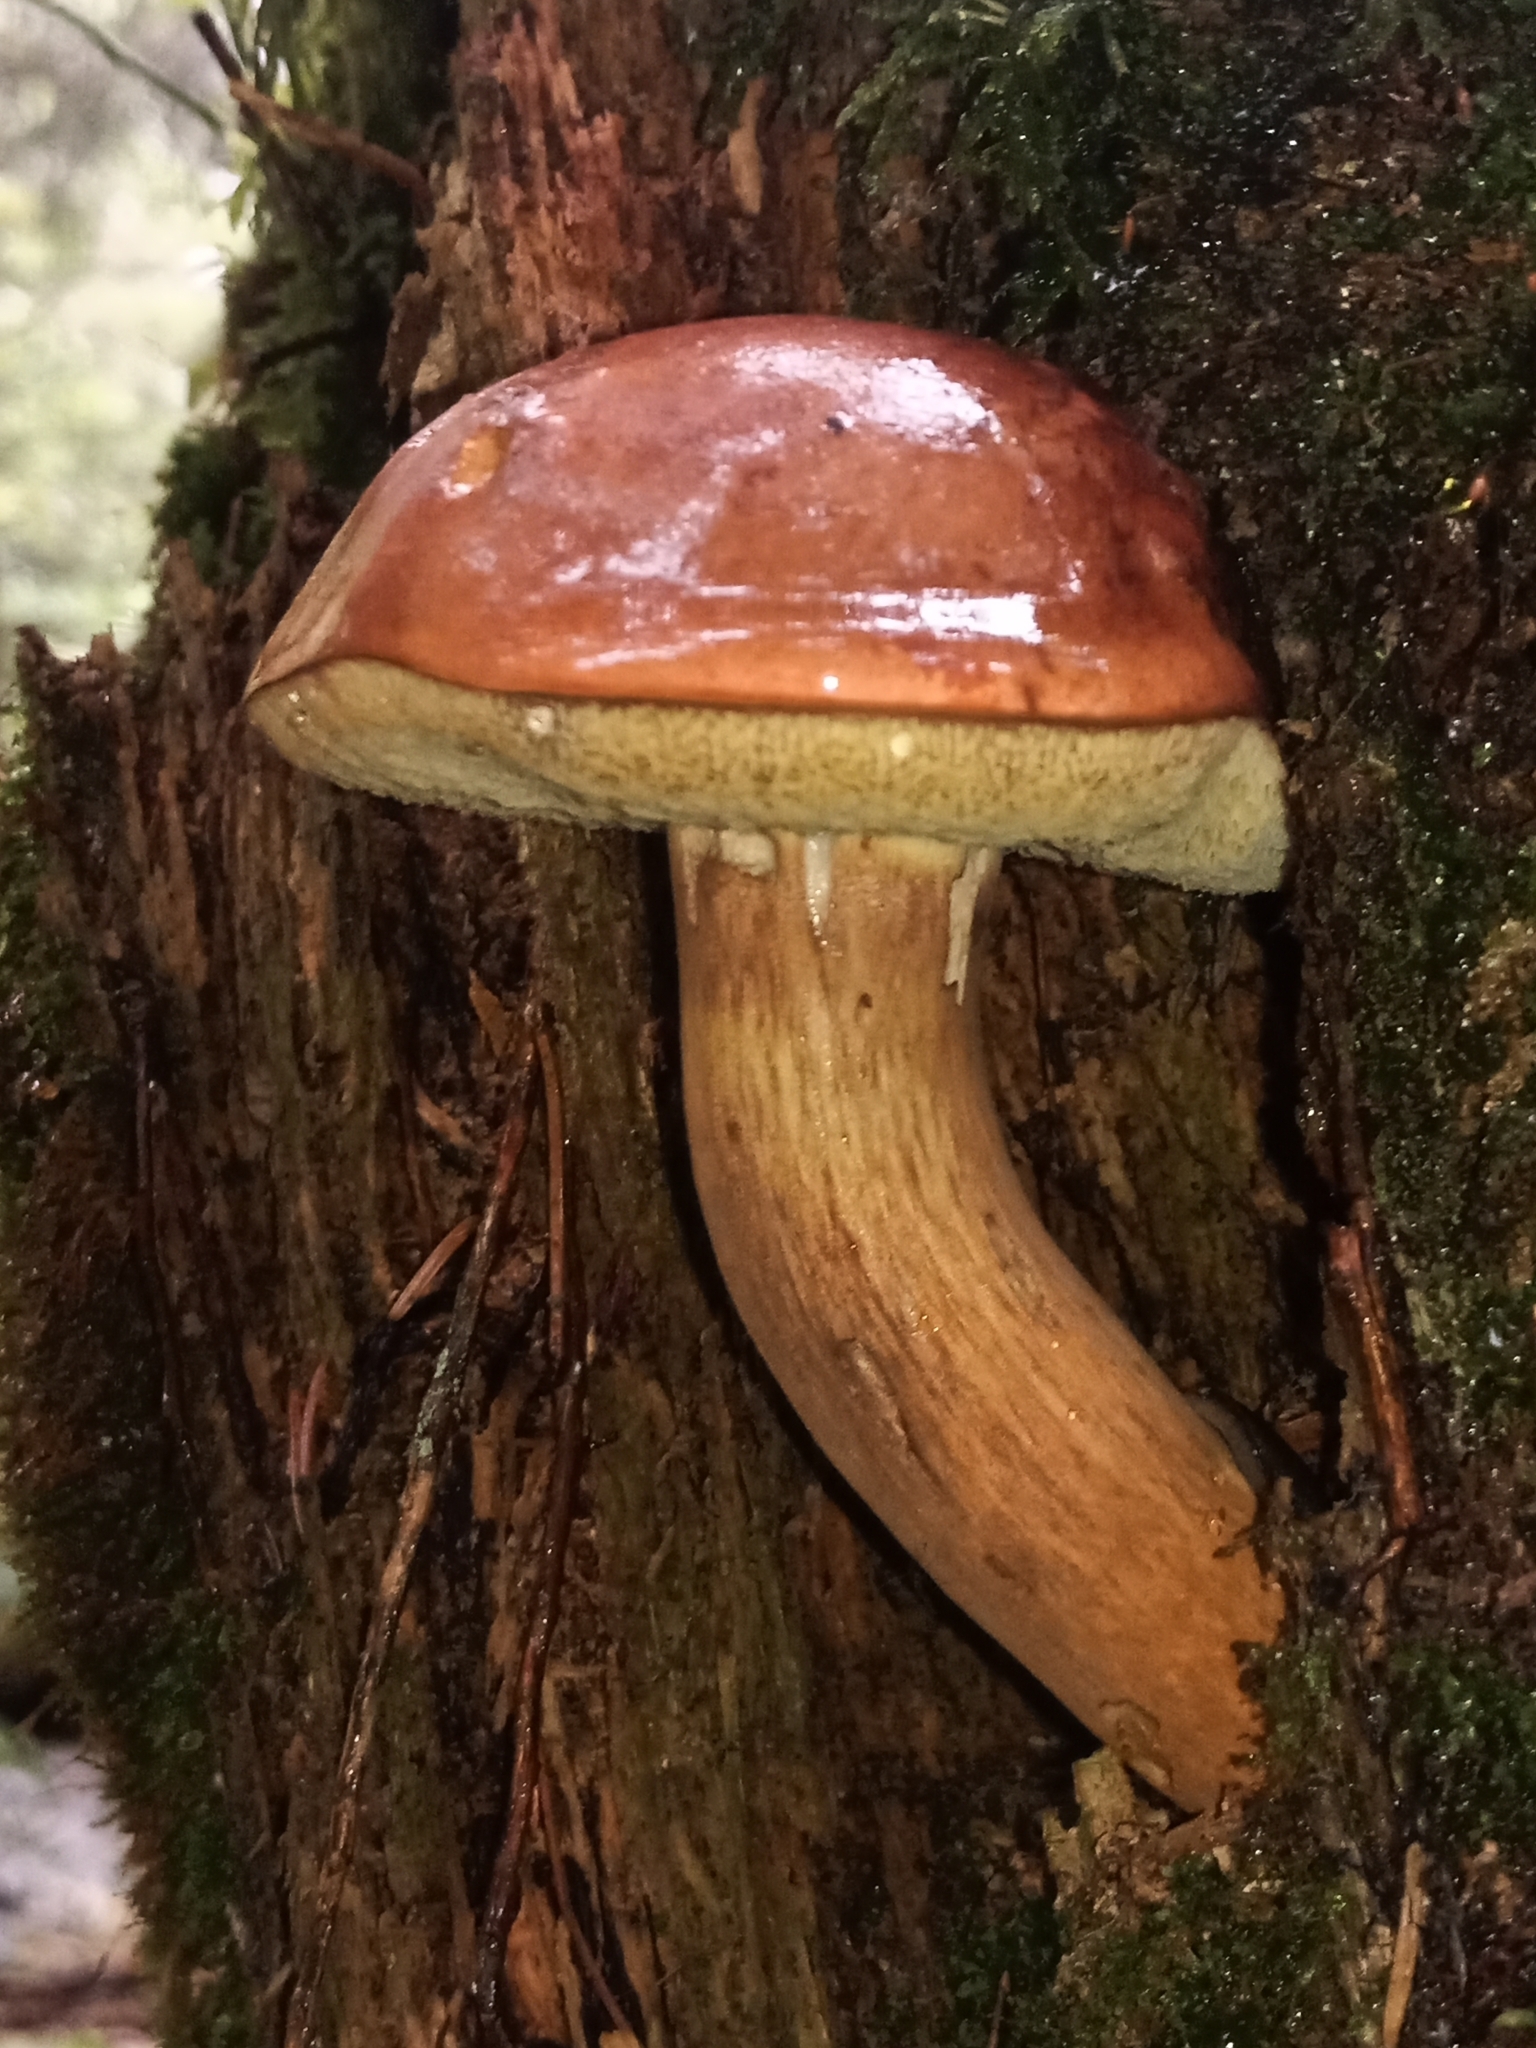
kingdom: Fungi
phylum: Basidiomycota
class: Agaricomycetes
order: Boletales
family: Boletaceae
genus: Imleria
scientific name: Imleria badia
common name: Bay bolete
